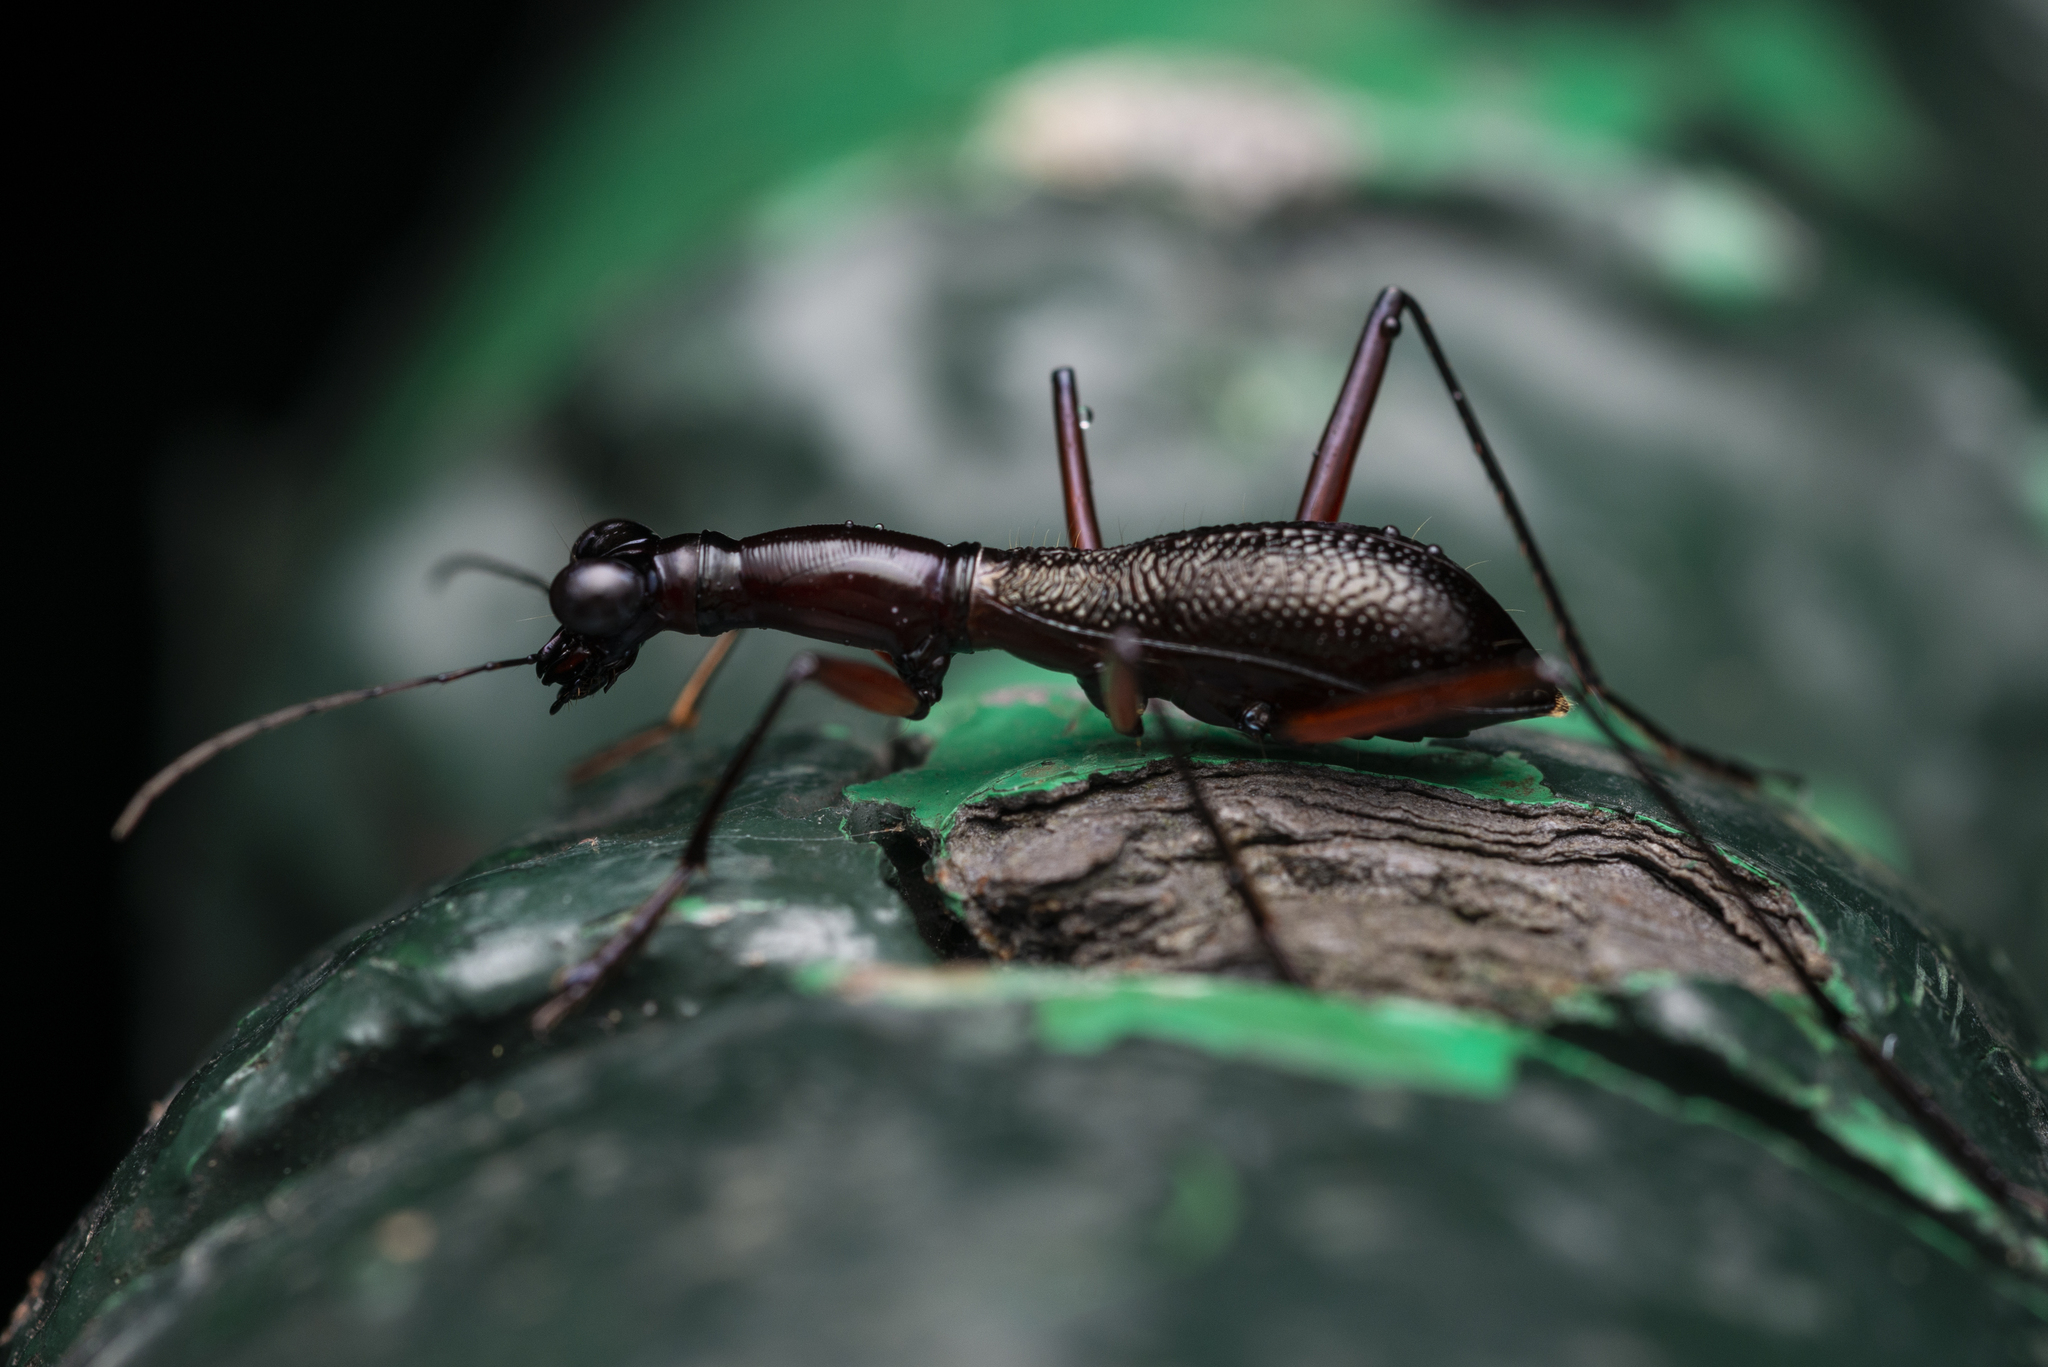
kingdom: Animalia
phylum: Arthropoda
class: Insecta
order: Coleoptera
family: Carabidae
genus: Tricondyla
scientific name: Tricondyla pulchripes
